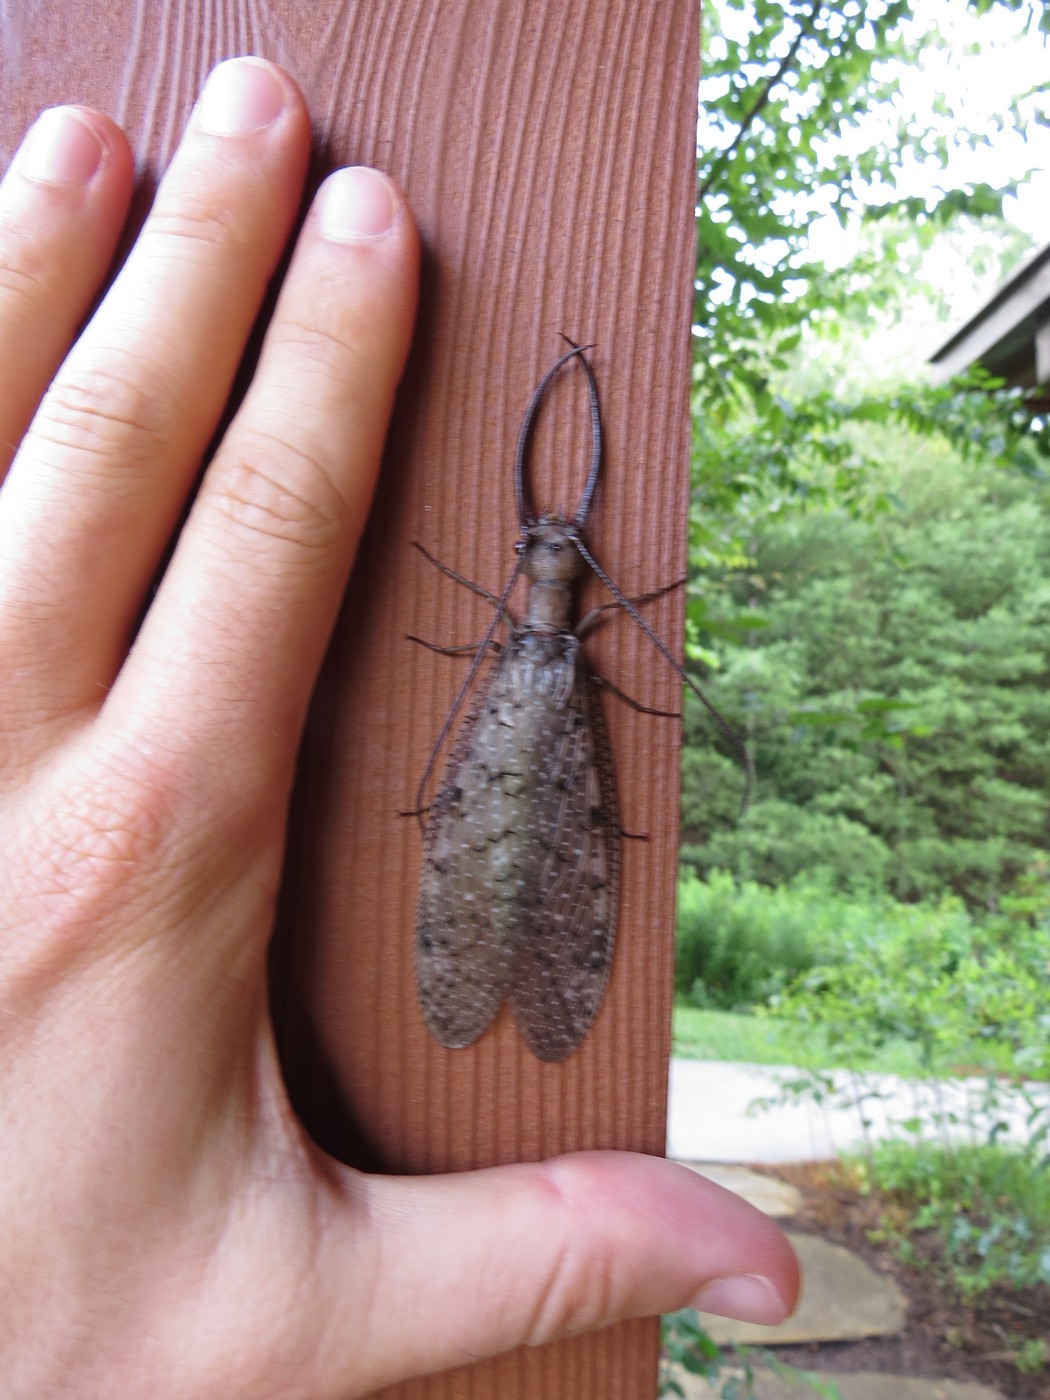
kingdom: Animalia
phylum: Arthropoda
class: Insecta
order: Megaloptera
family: Corydalidae
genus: Corydalus
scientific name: Corydalus cornutus
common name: Dobsonfly
